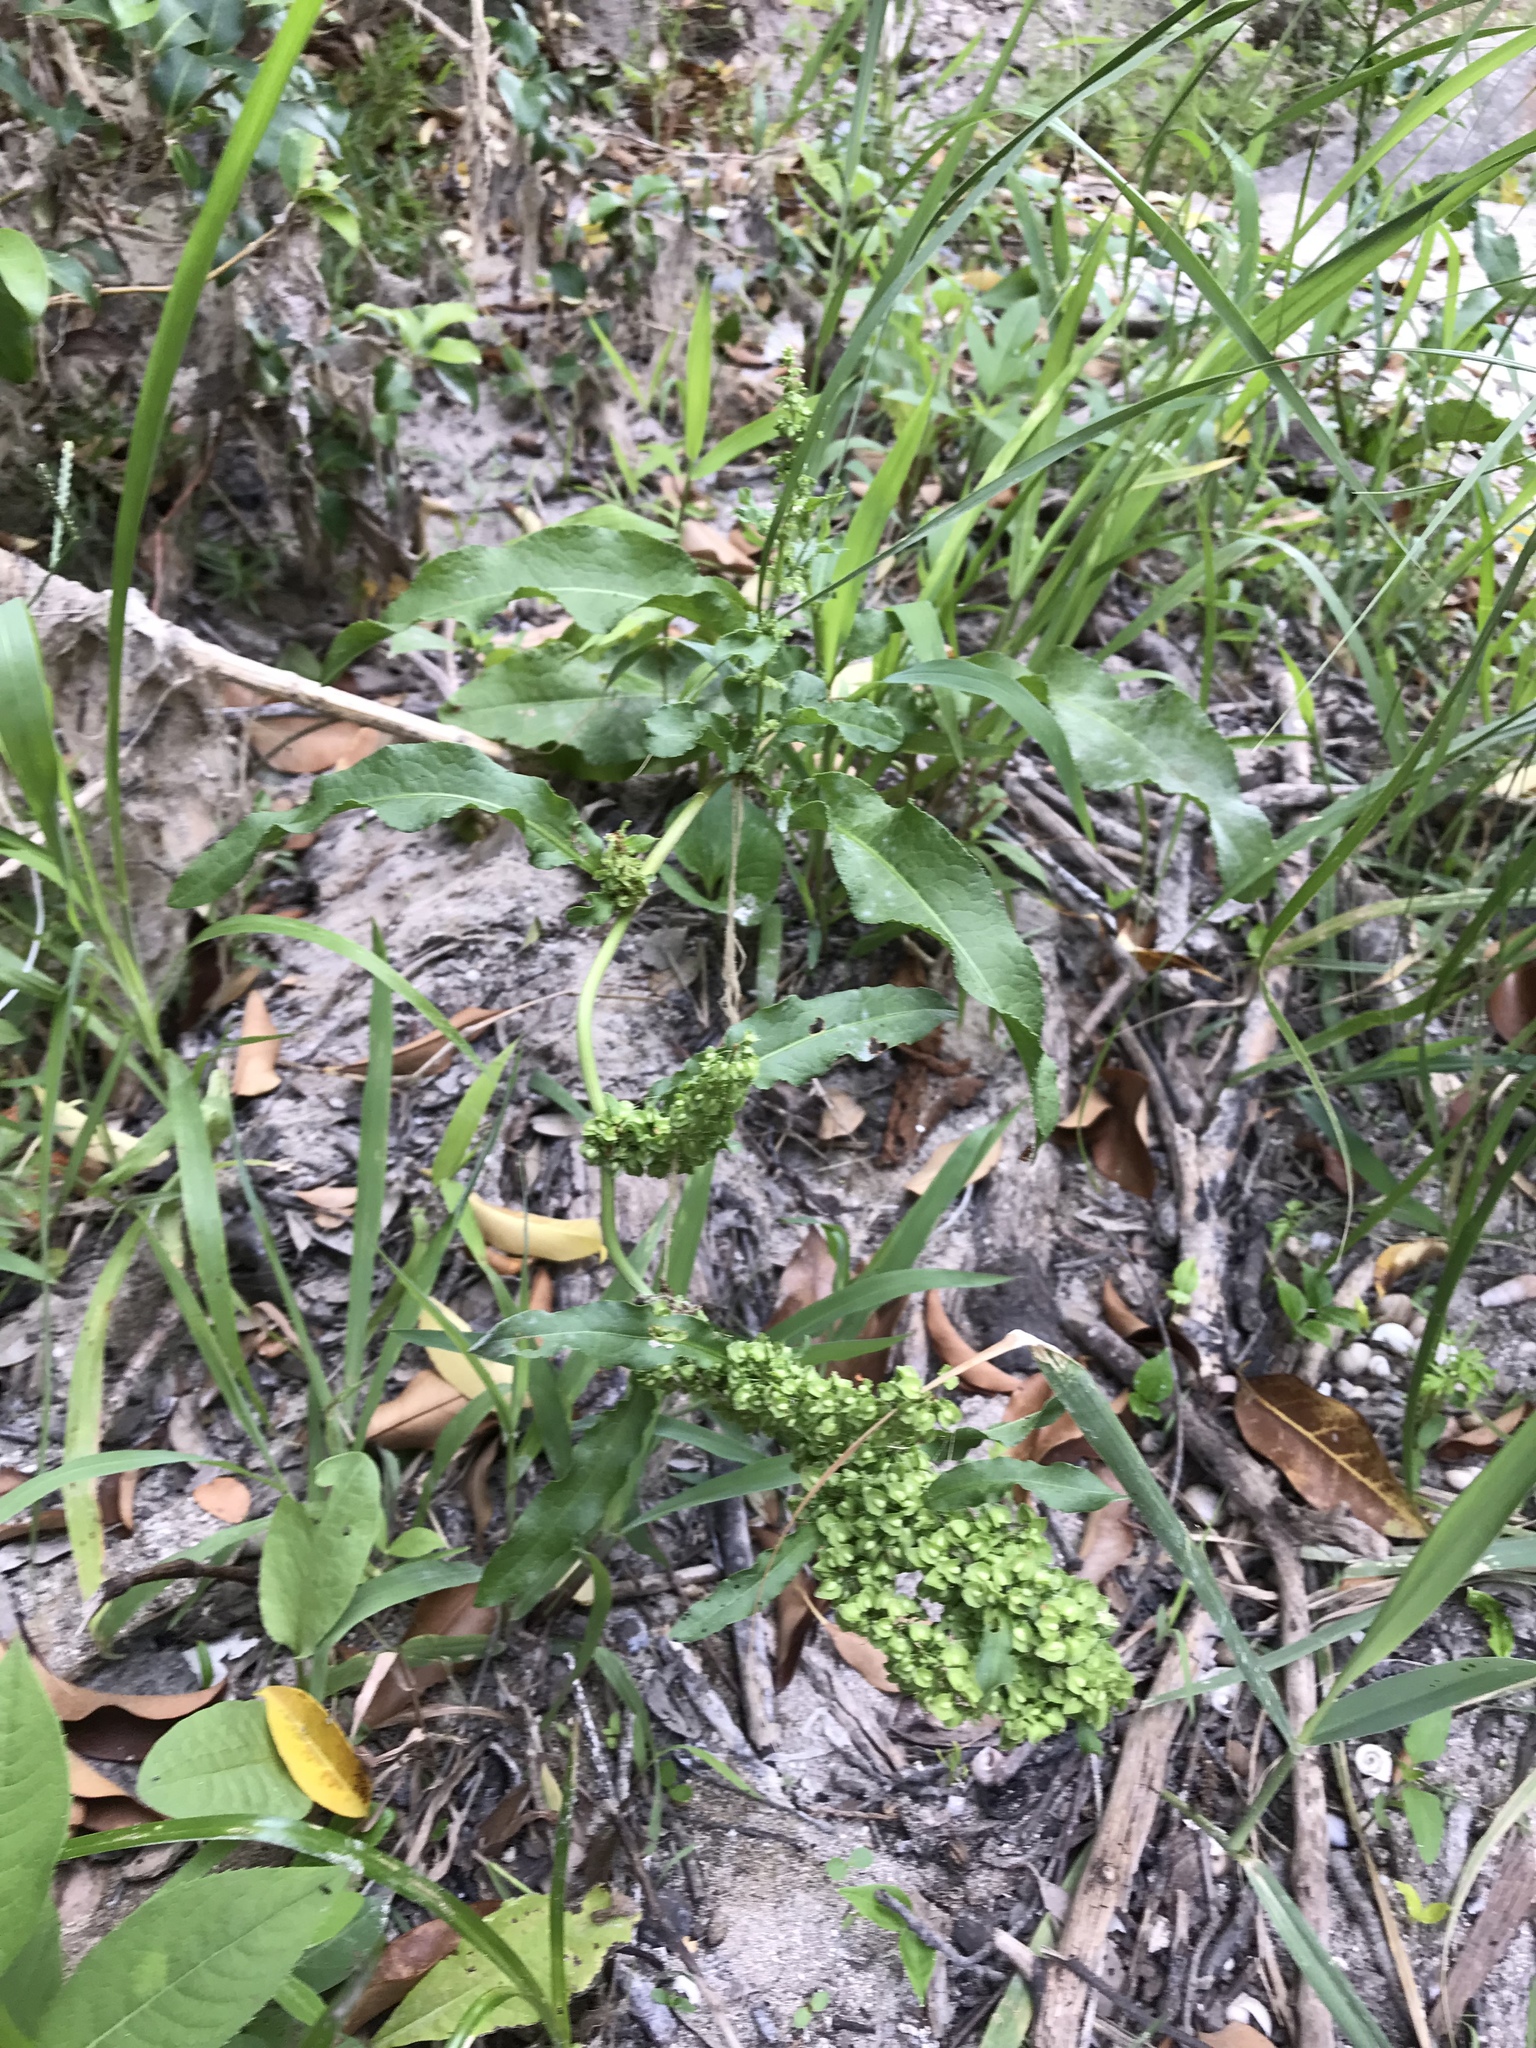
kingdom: Plantae
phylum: Tracheophyta
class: Magnoliopsida
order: Caryophyllales
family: Polygonaceae
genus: Rumex
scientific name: Rumex crispus
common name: Curled dock
